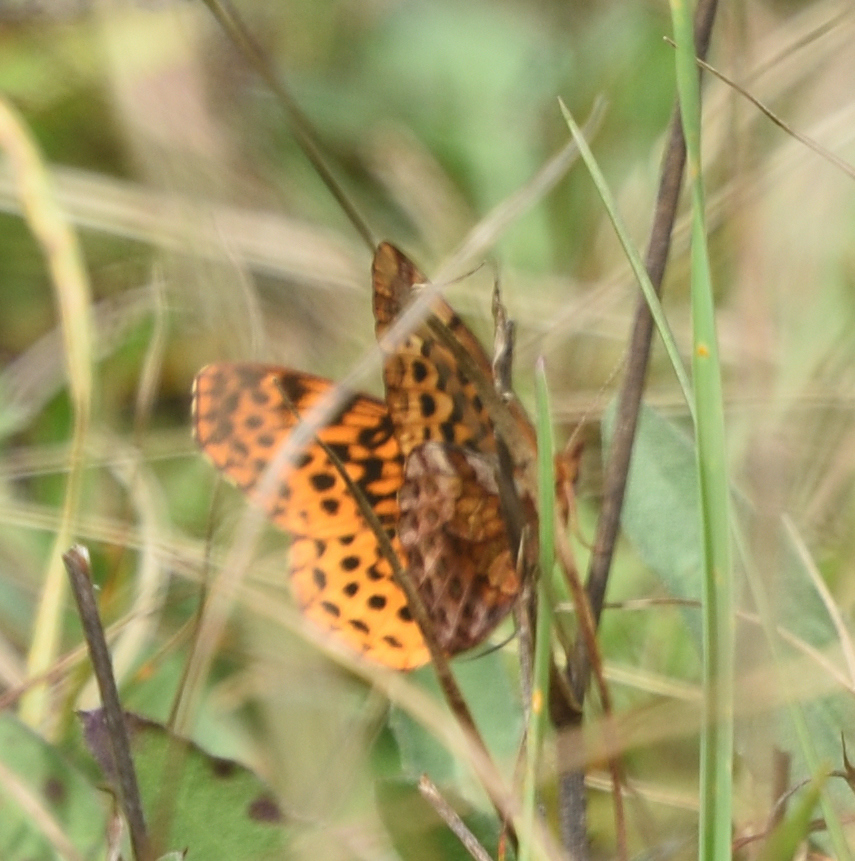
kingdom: Animalia
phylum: Arthropoda
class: Insecta
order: Lepidoptera
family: Nymphalidae
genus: Clossiana
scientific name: Clossiana toddi
